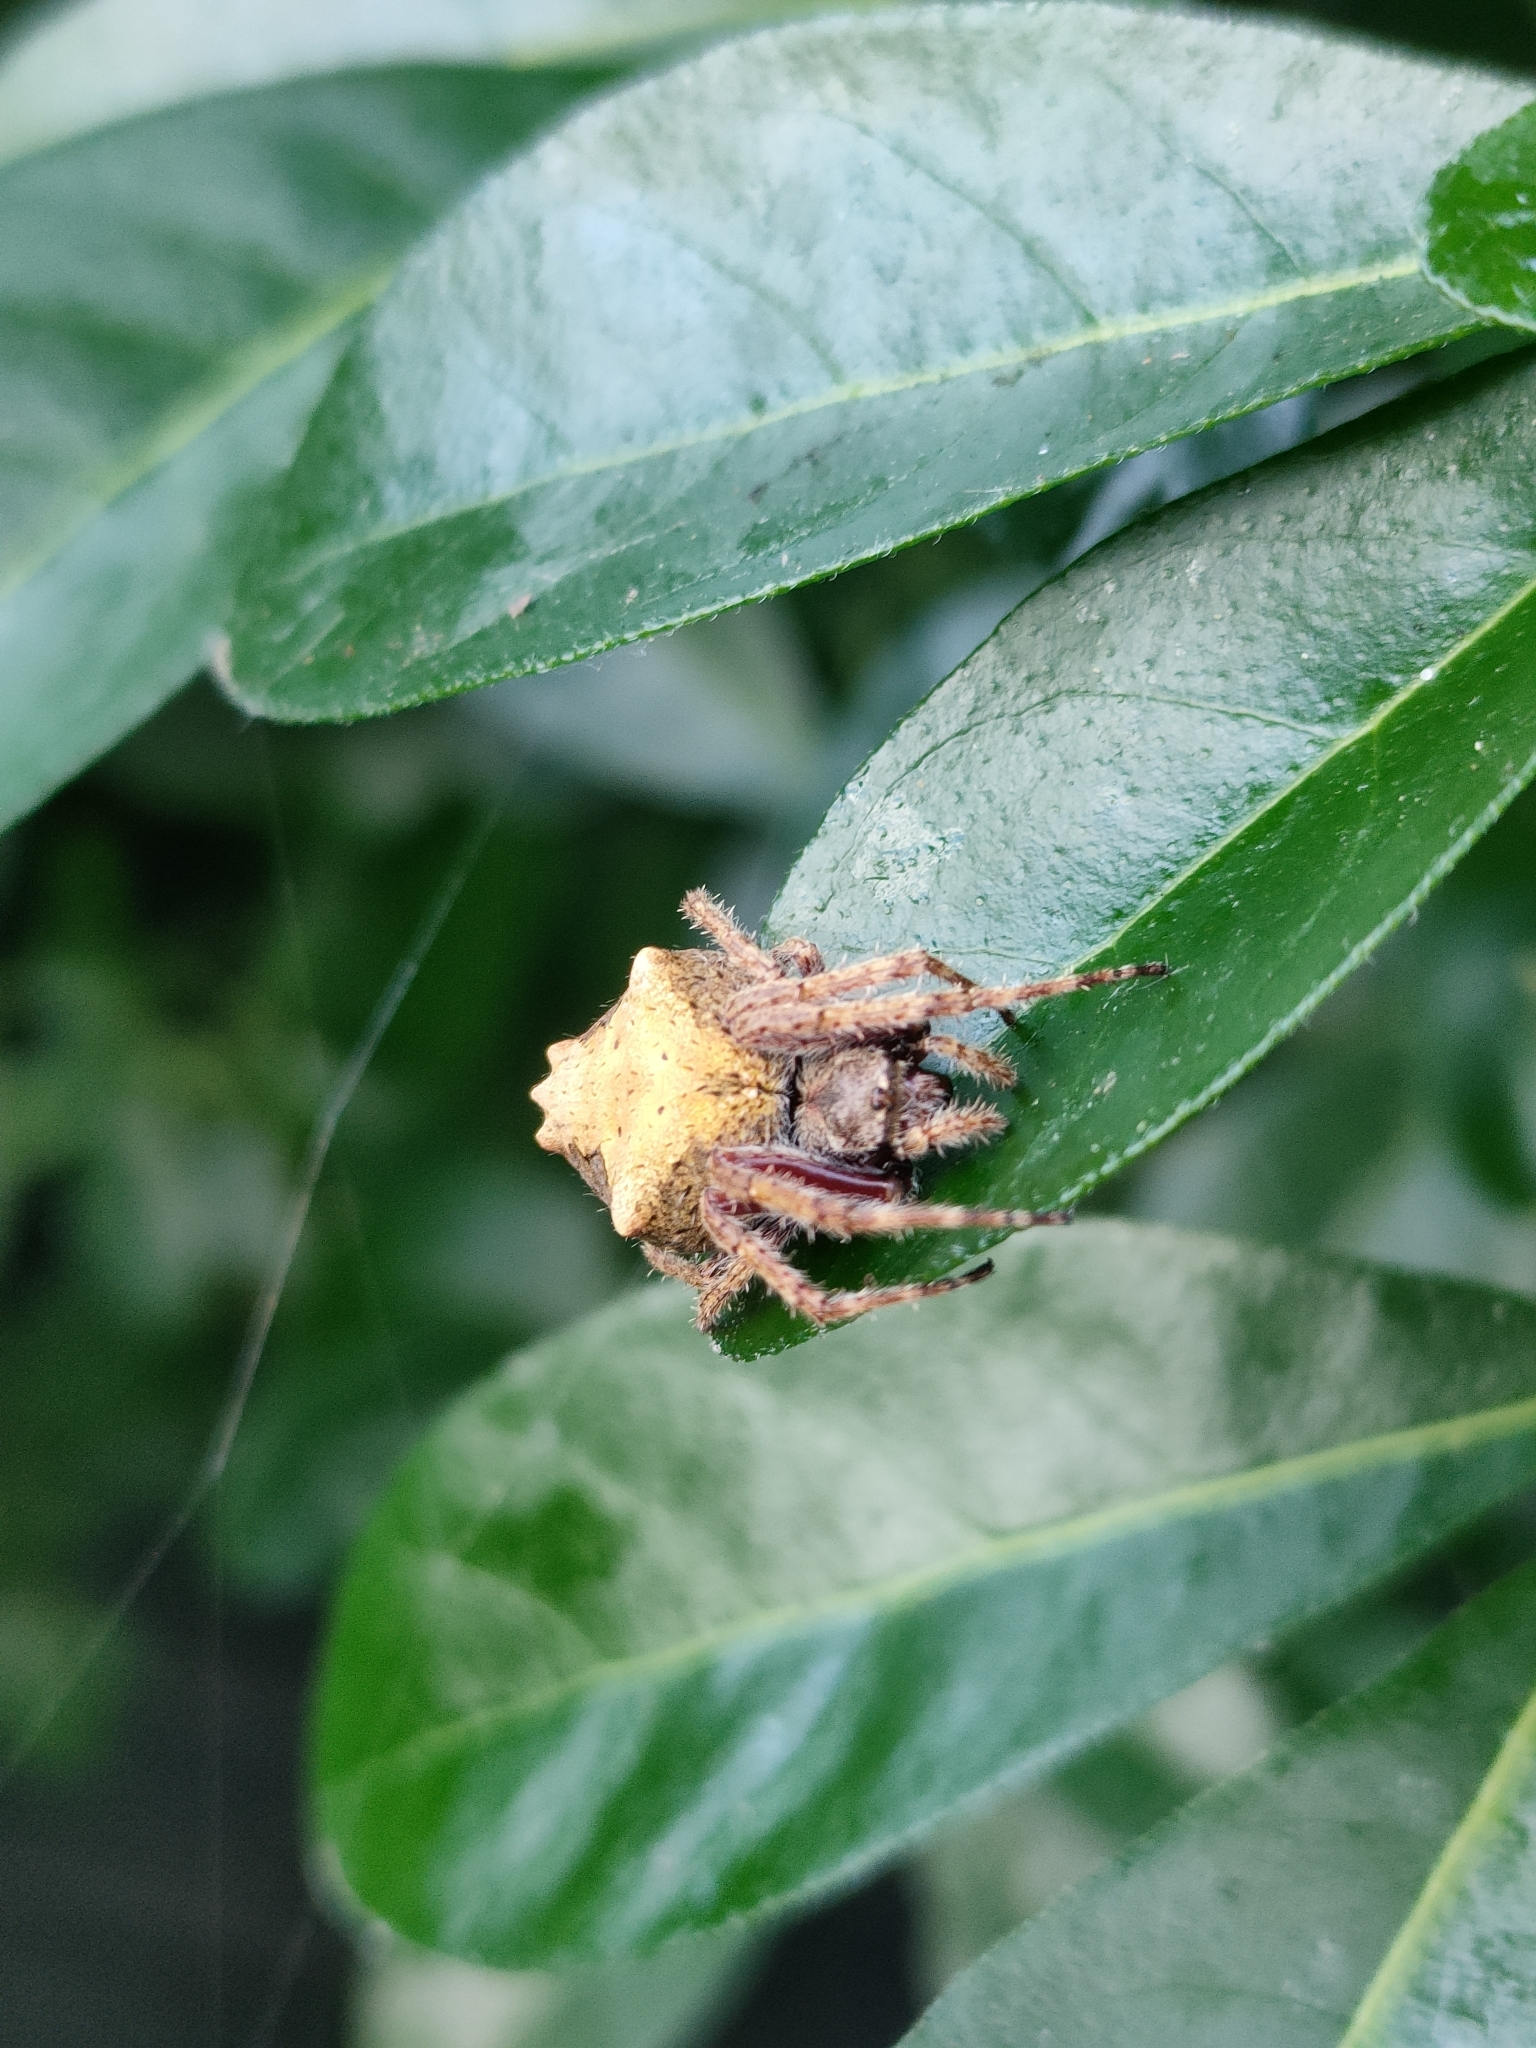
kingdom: Animalia
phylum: Arthropoda
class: Arachnida
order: Araneae
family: Araneidae
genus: Eriophora
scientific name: Eriophora pustulosa
